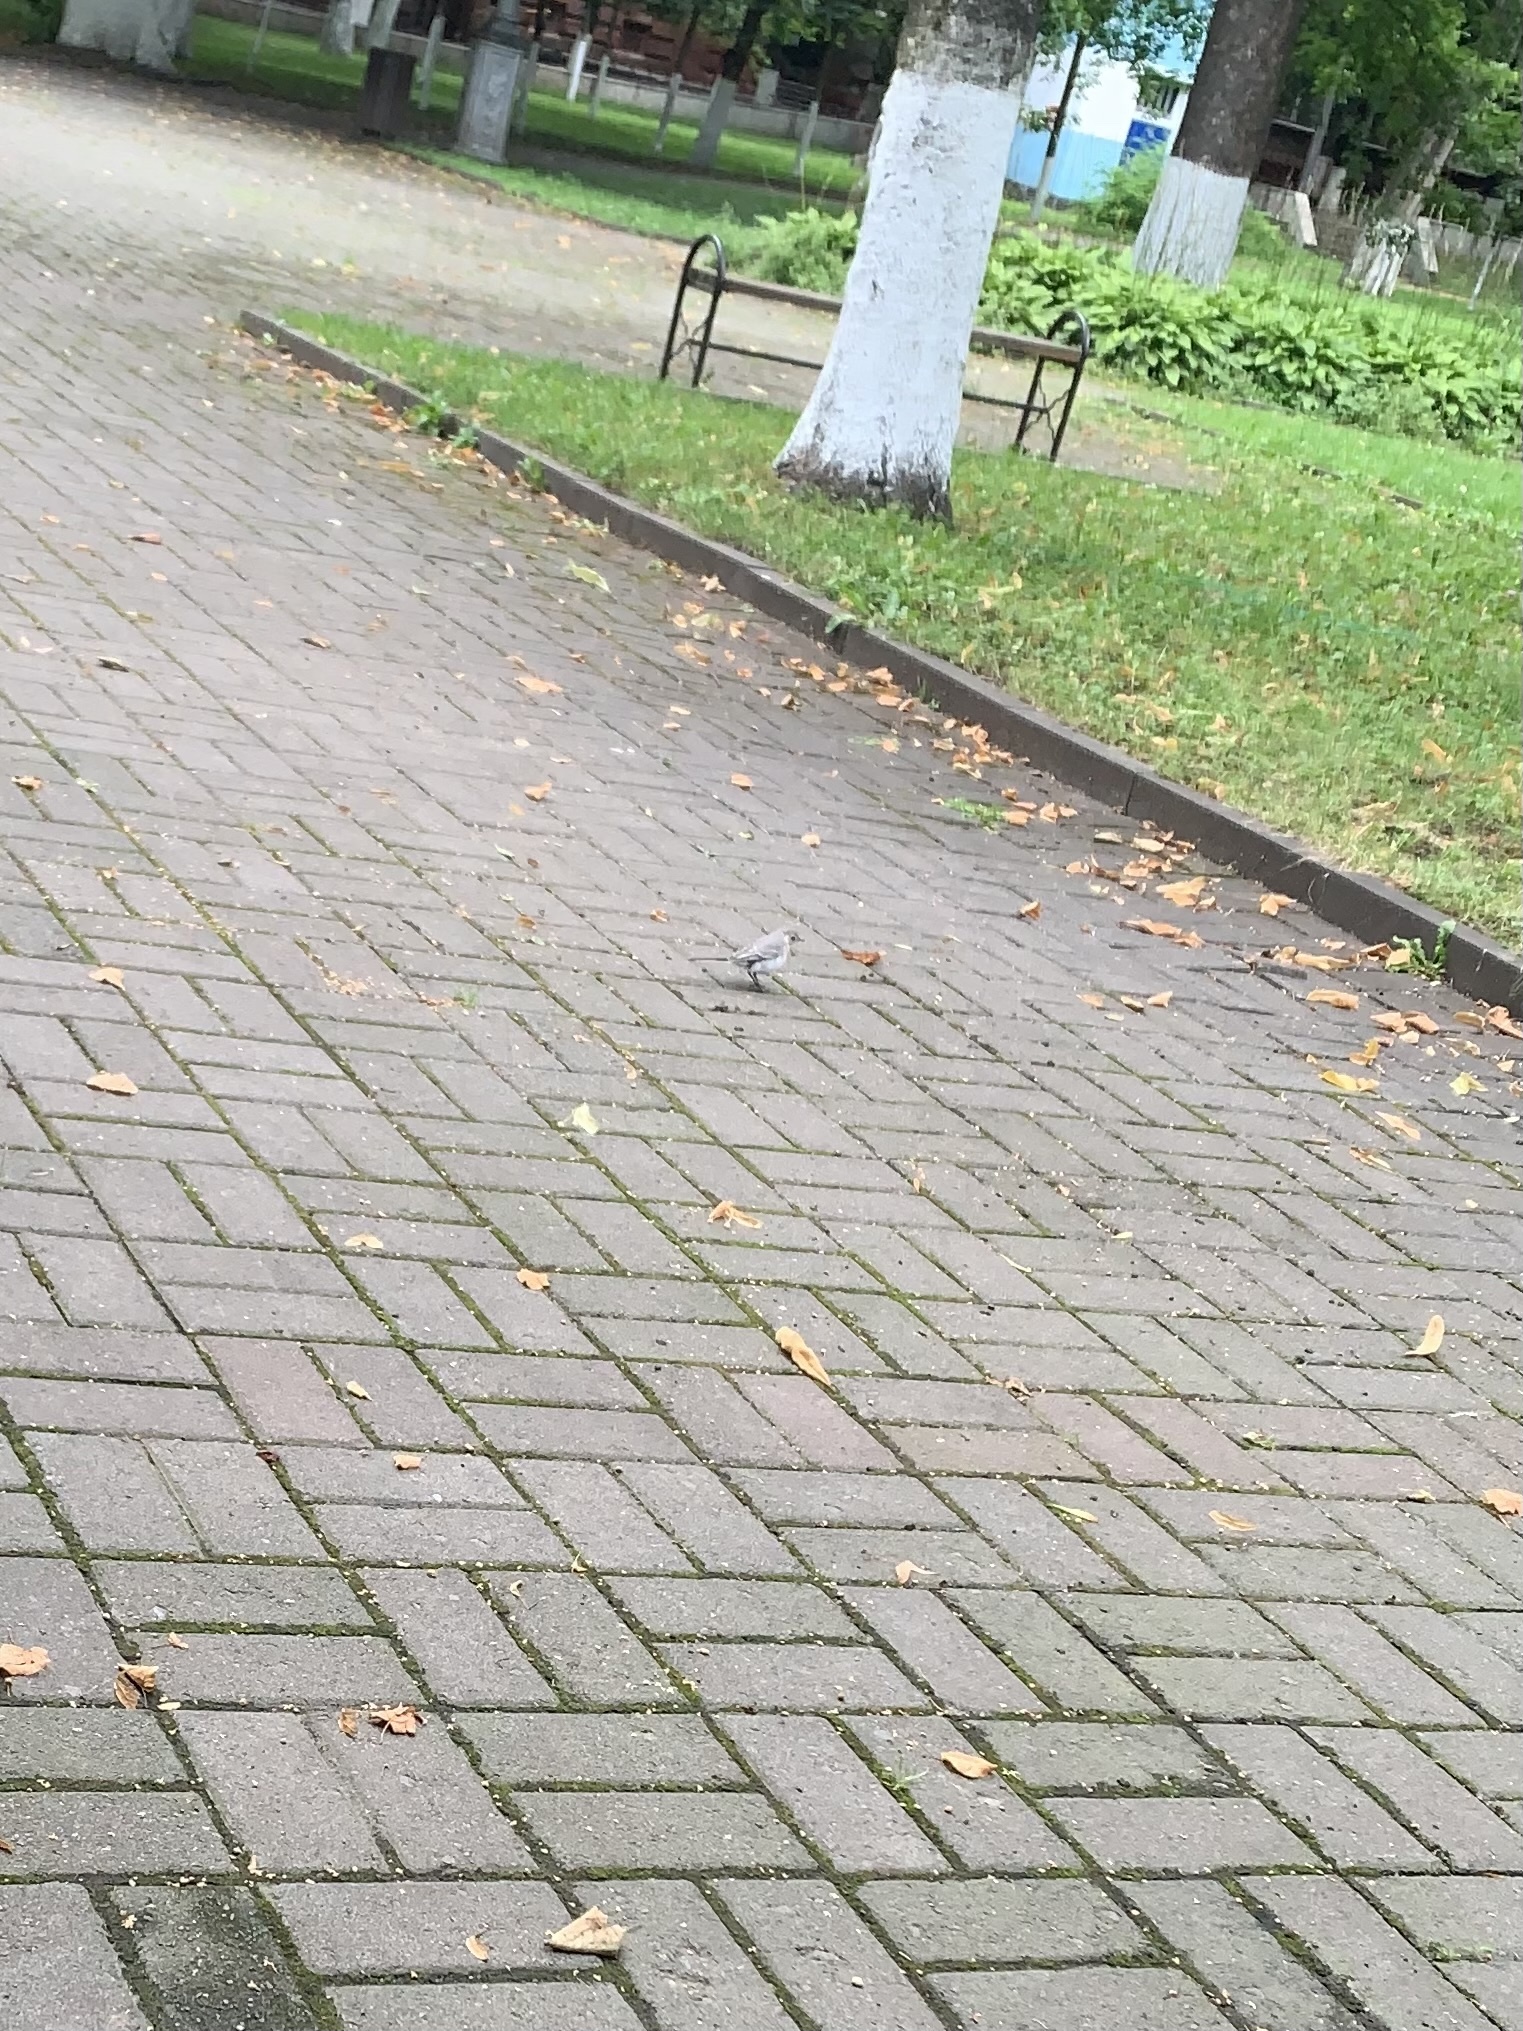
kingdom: Animalia
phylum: Chordata
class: Aves
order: Passeriformes
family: Motacillidae
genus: Motacilla
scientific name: Motacilla alba
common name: White wagtail
